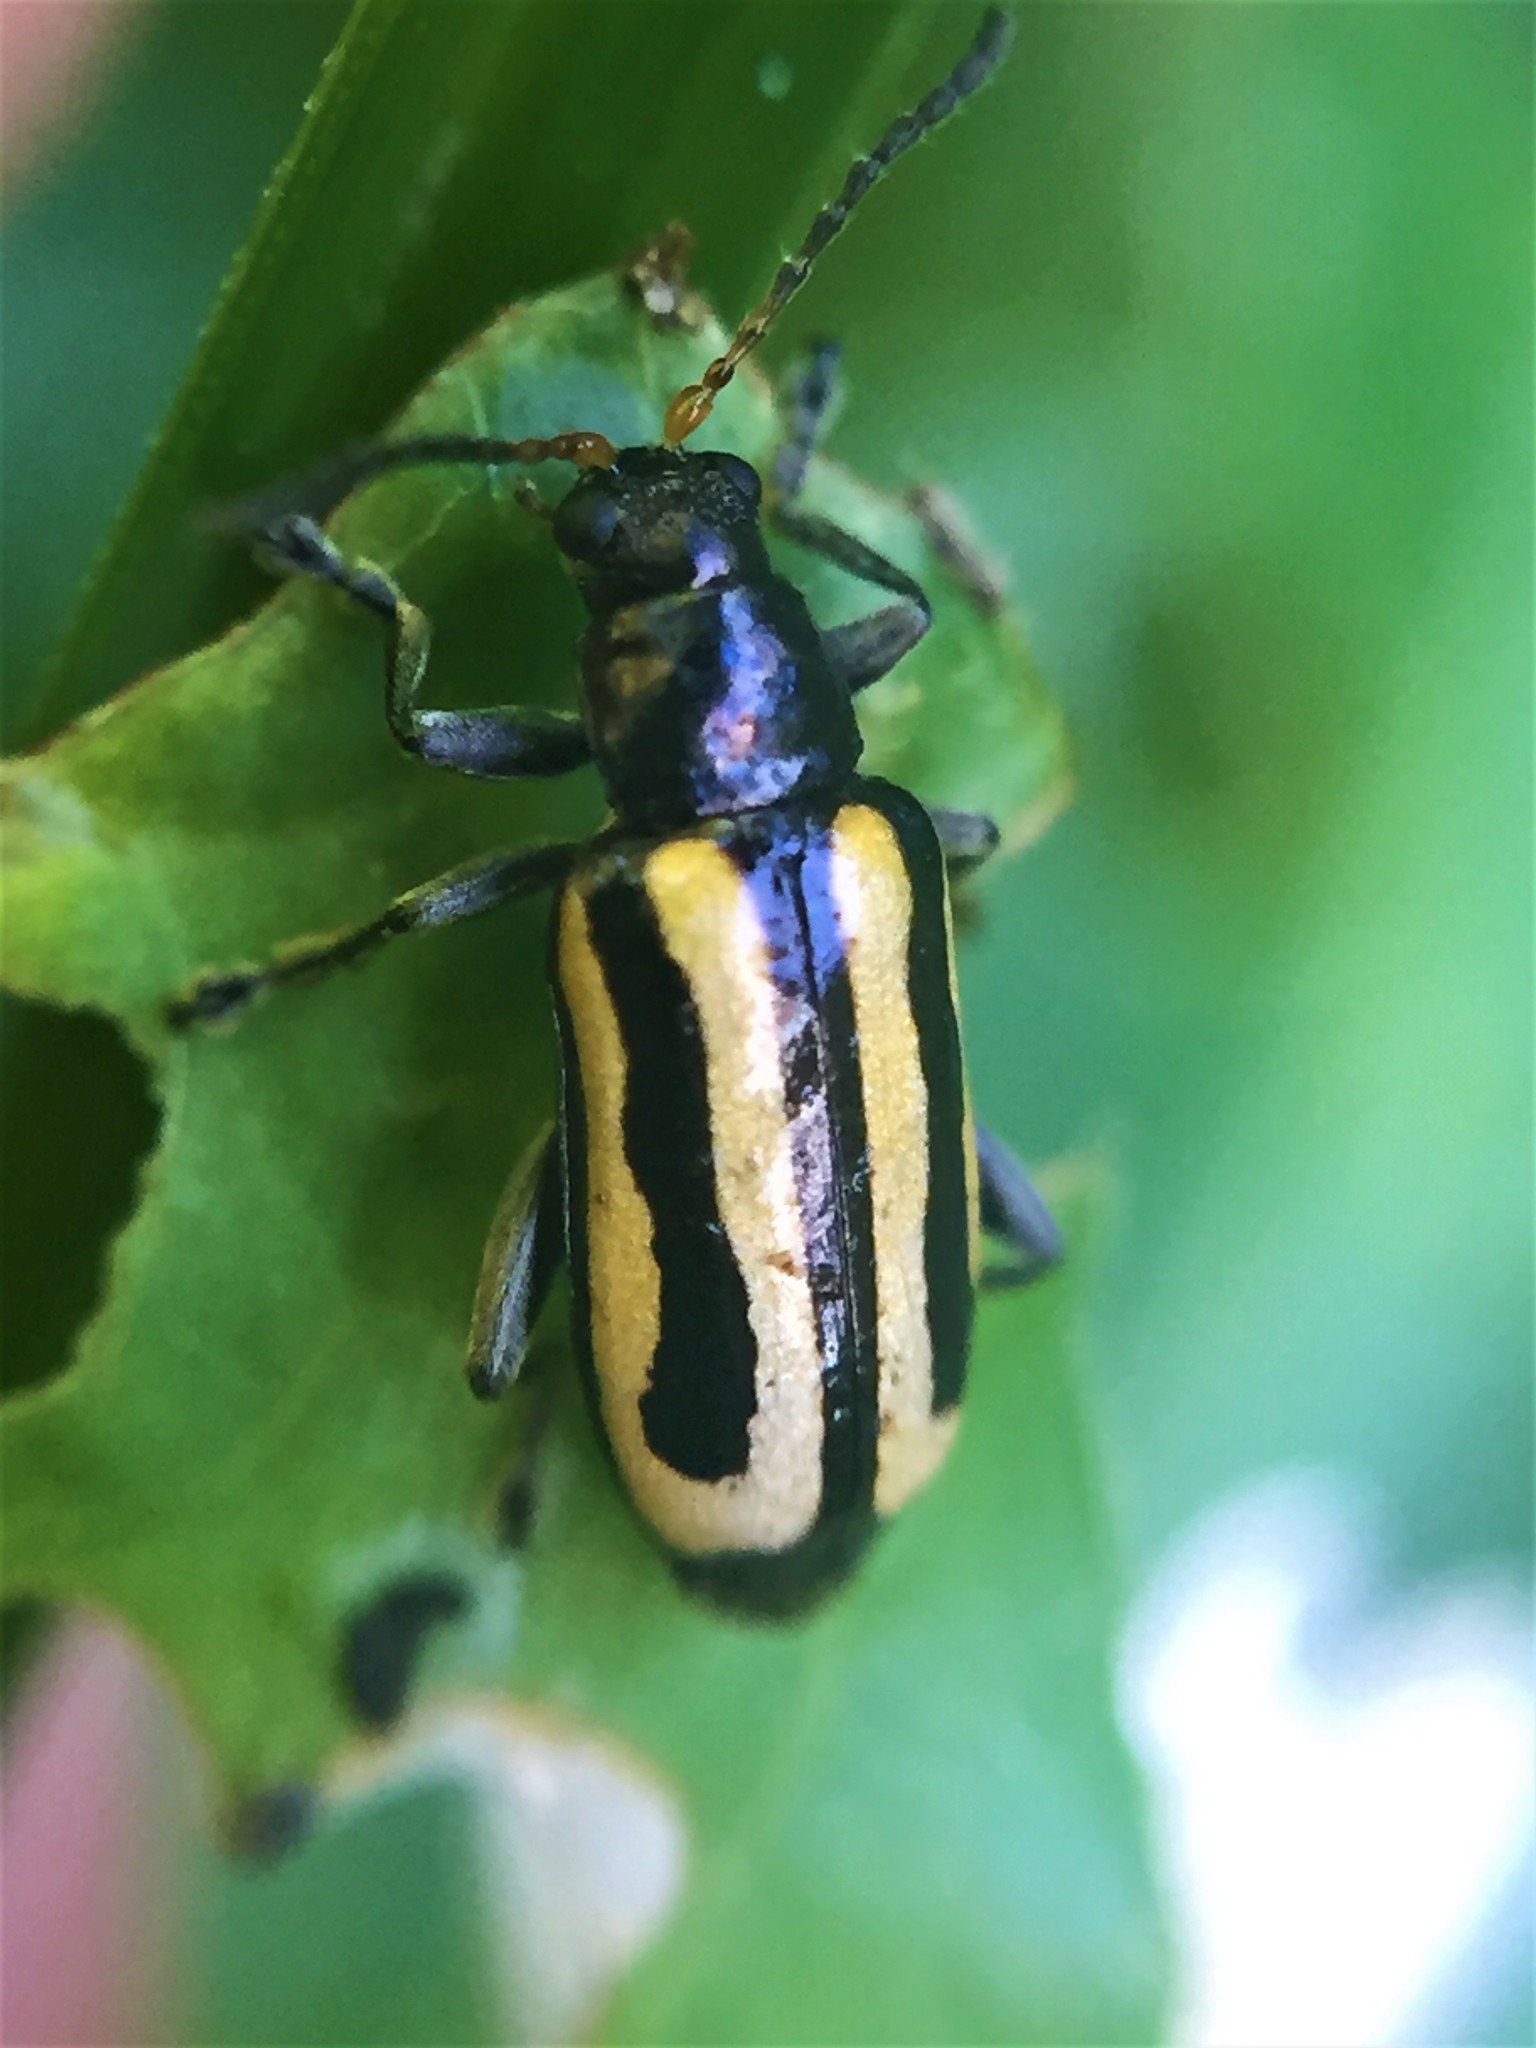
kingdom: Animalia
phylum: Arthropoda
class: Insecta
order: Coleoptera
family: Chrysomelidae
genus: Agasicles
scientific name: Agasicles hygrophila
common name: Alligatorweed flea beetle
